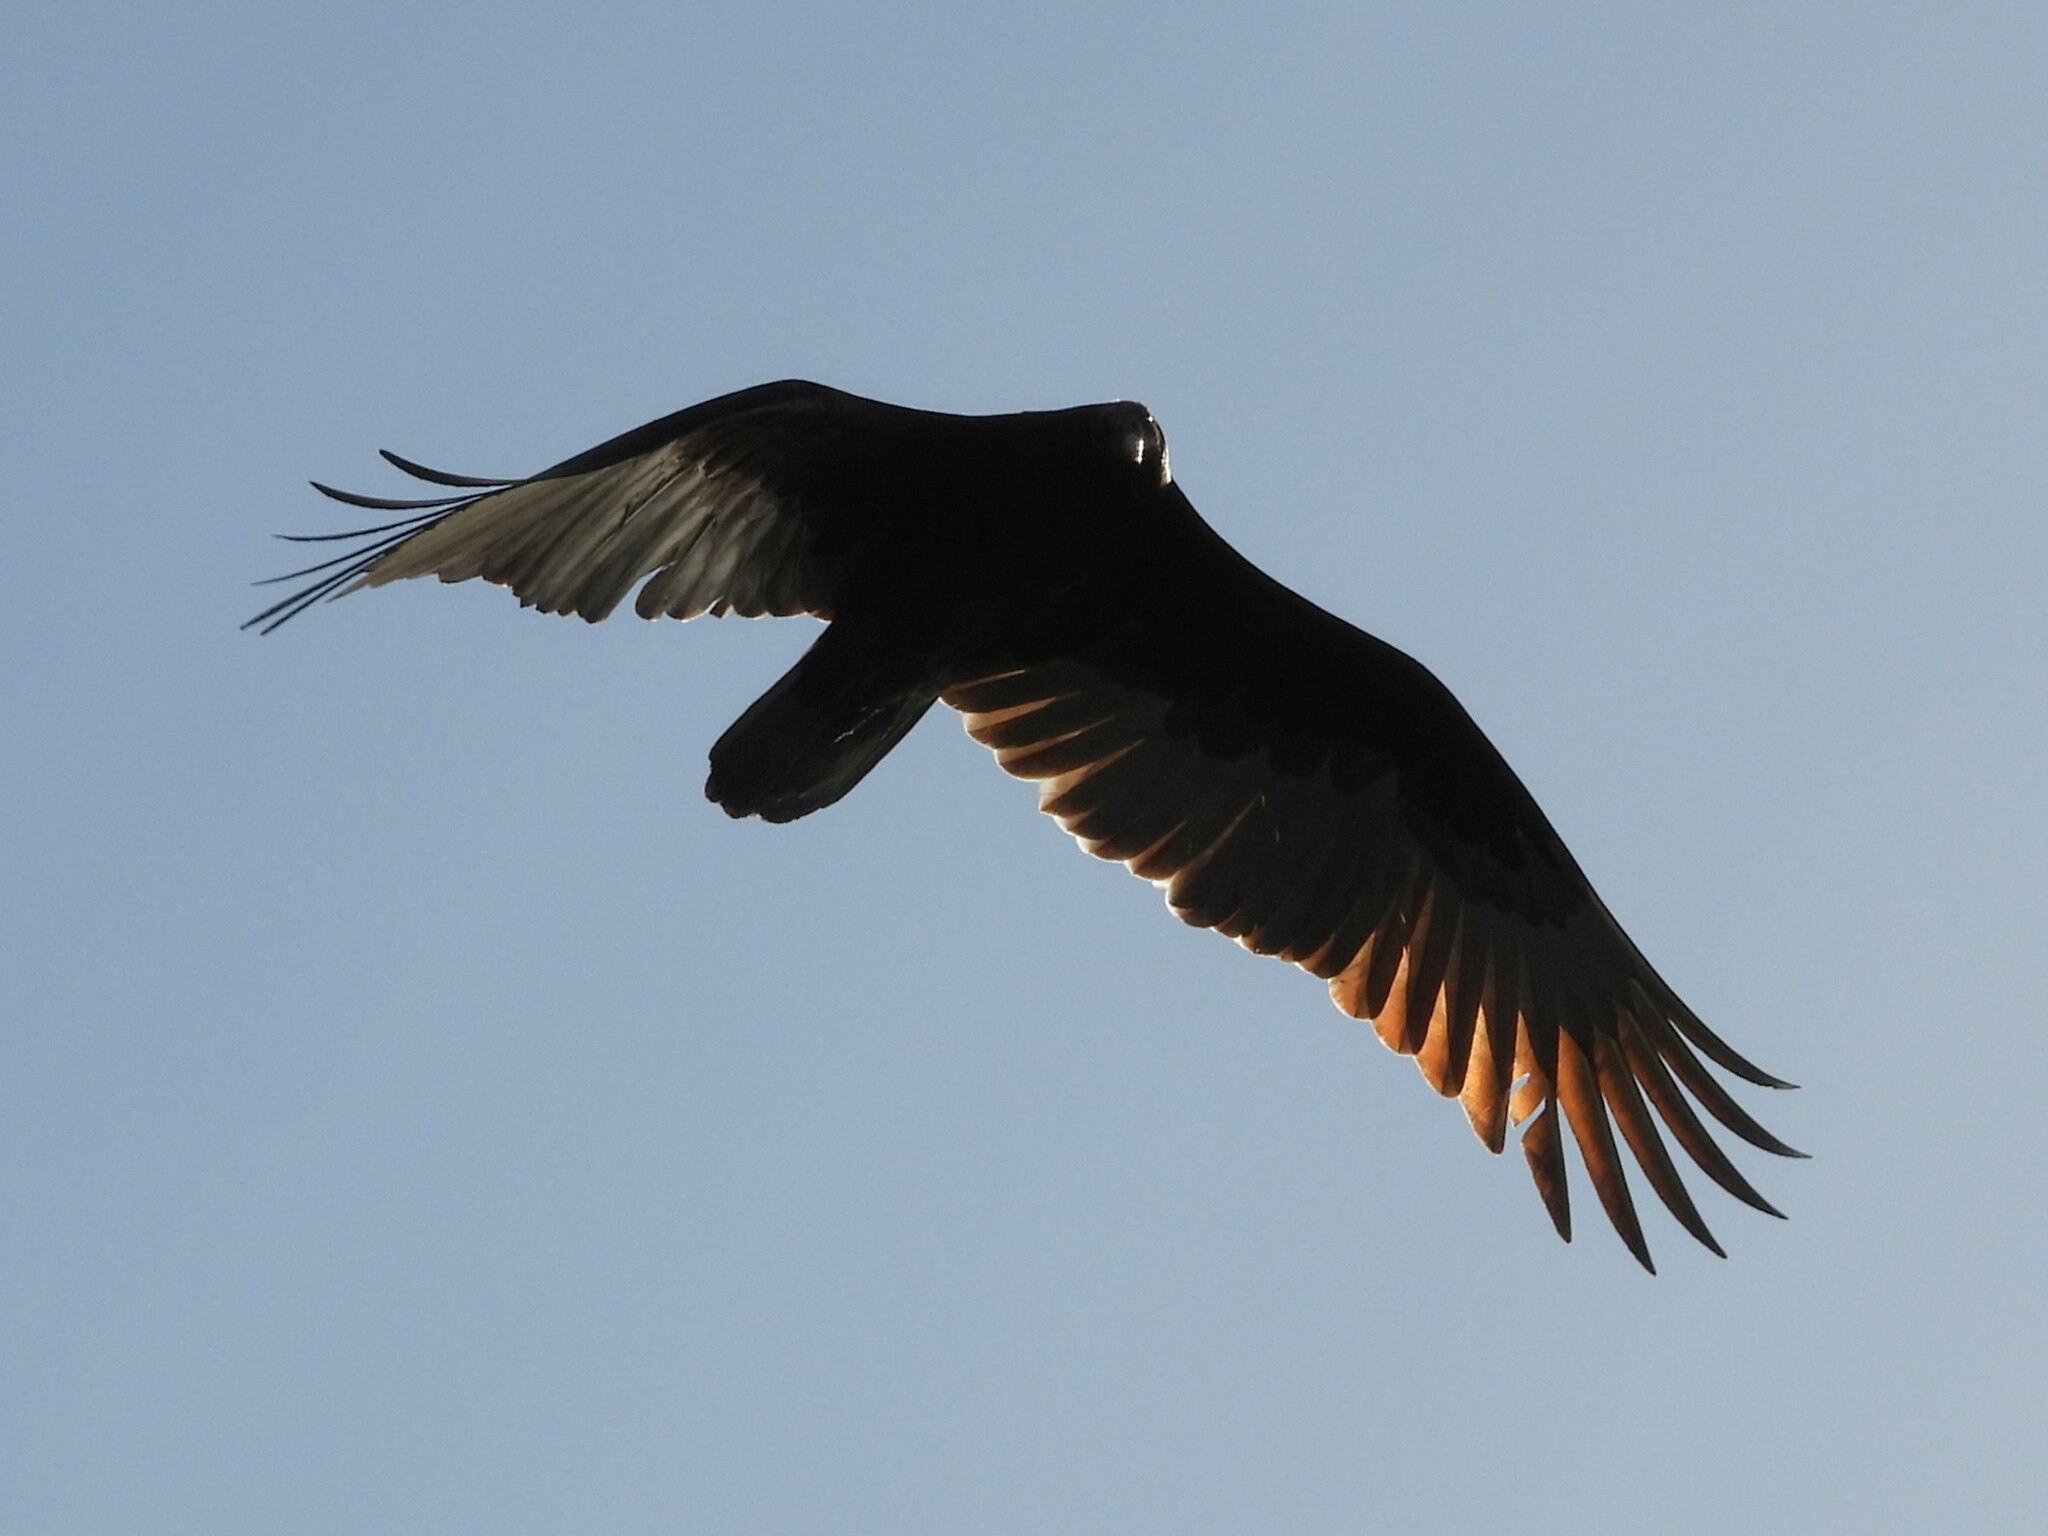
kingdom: Animalia
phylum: Chordata
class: Aves
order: Accipitriformes
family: Cathartidae
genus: Cathartes
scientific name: Cathartes aura
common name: Turkey vulture
